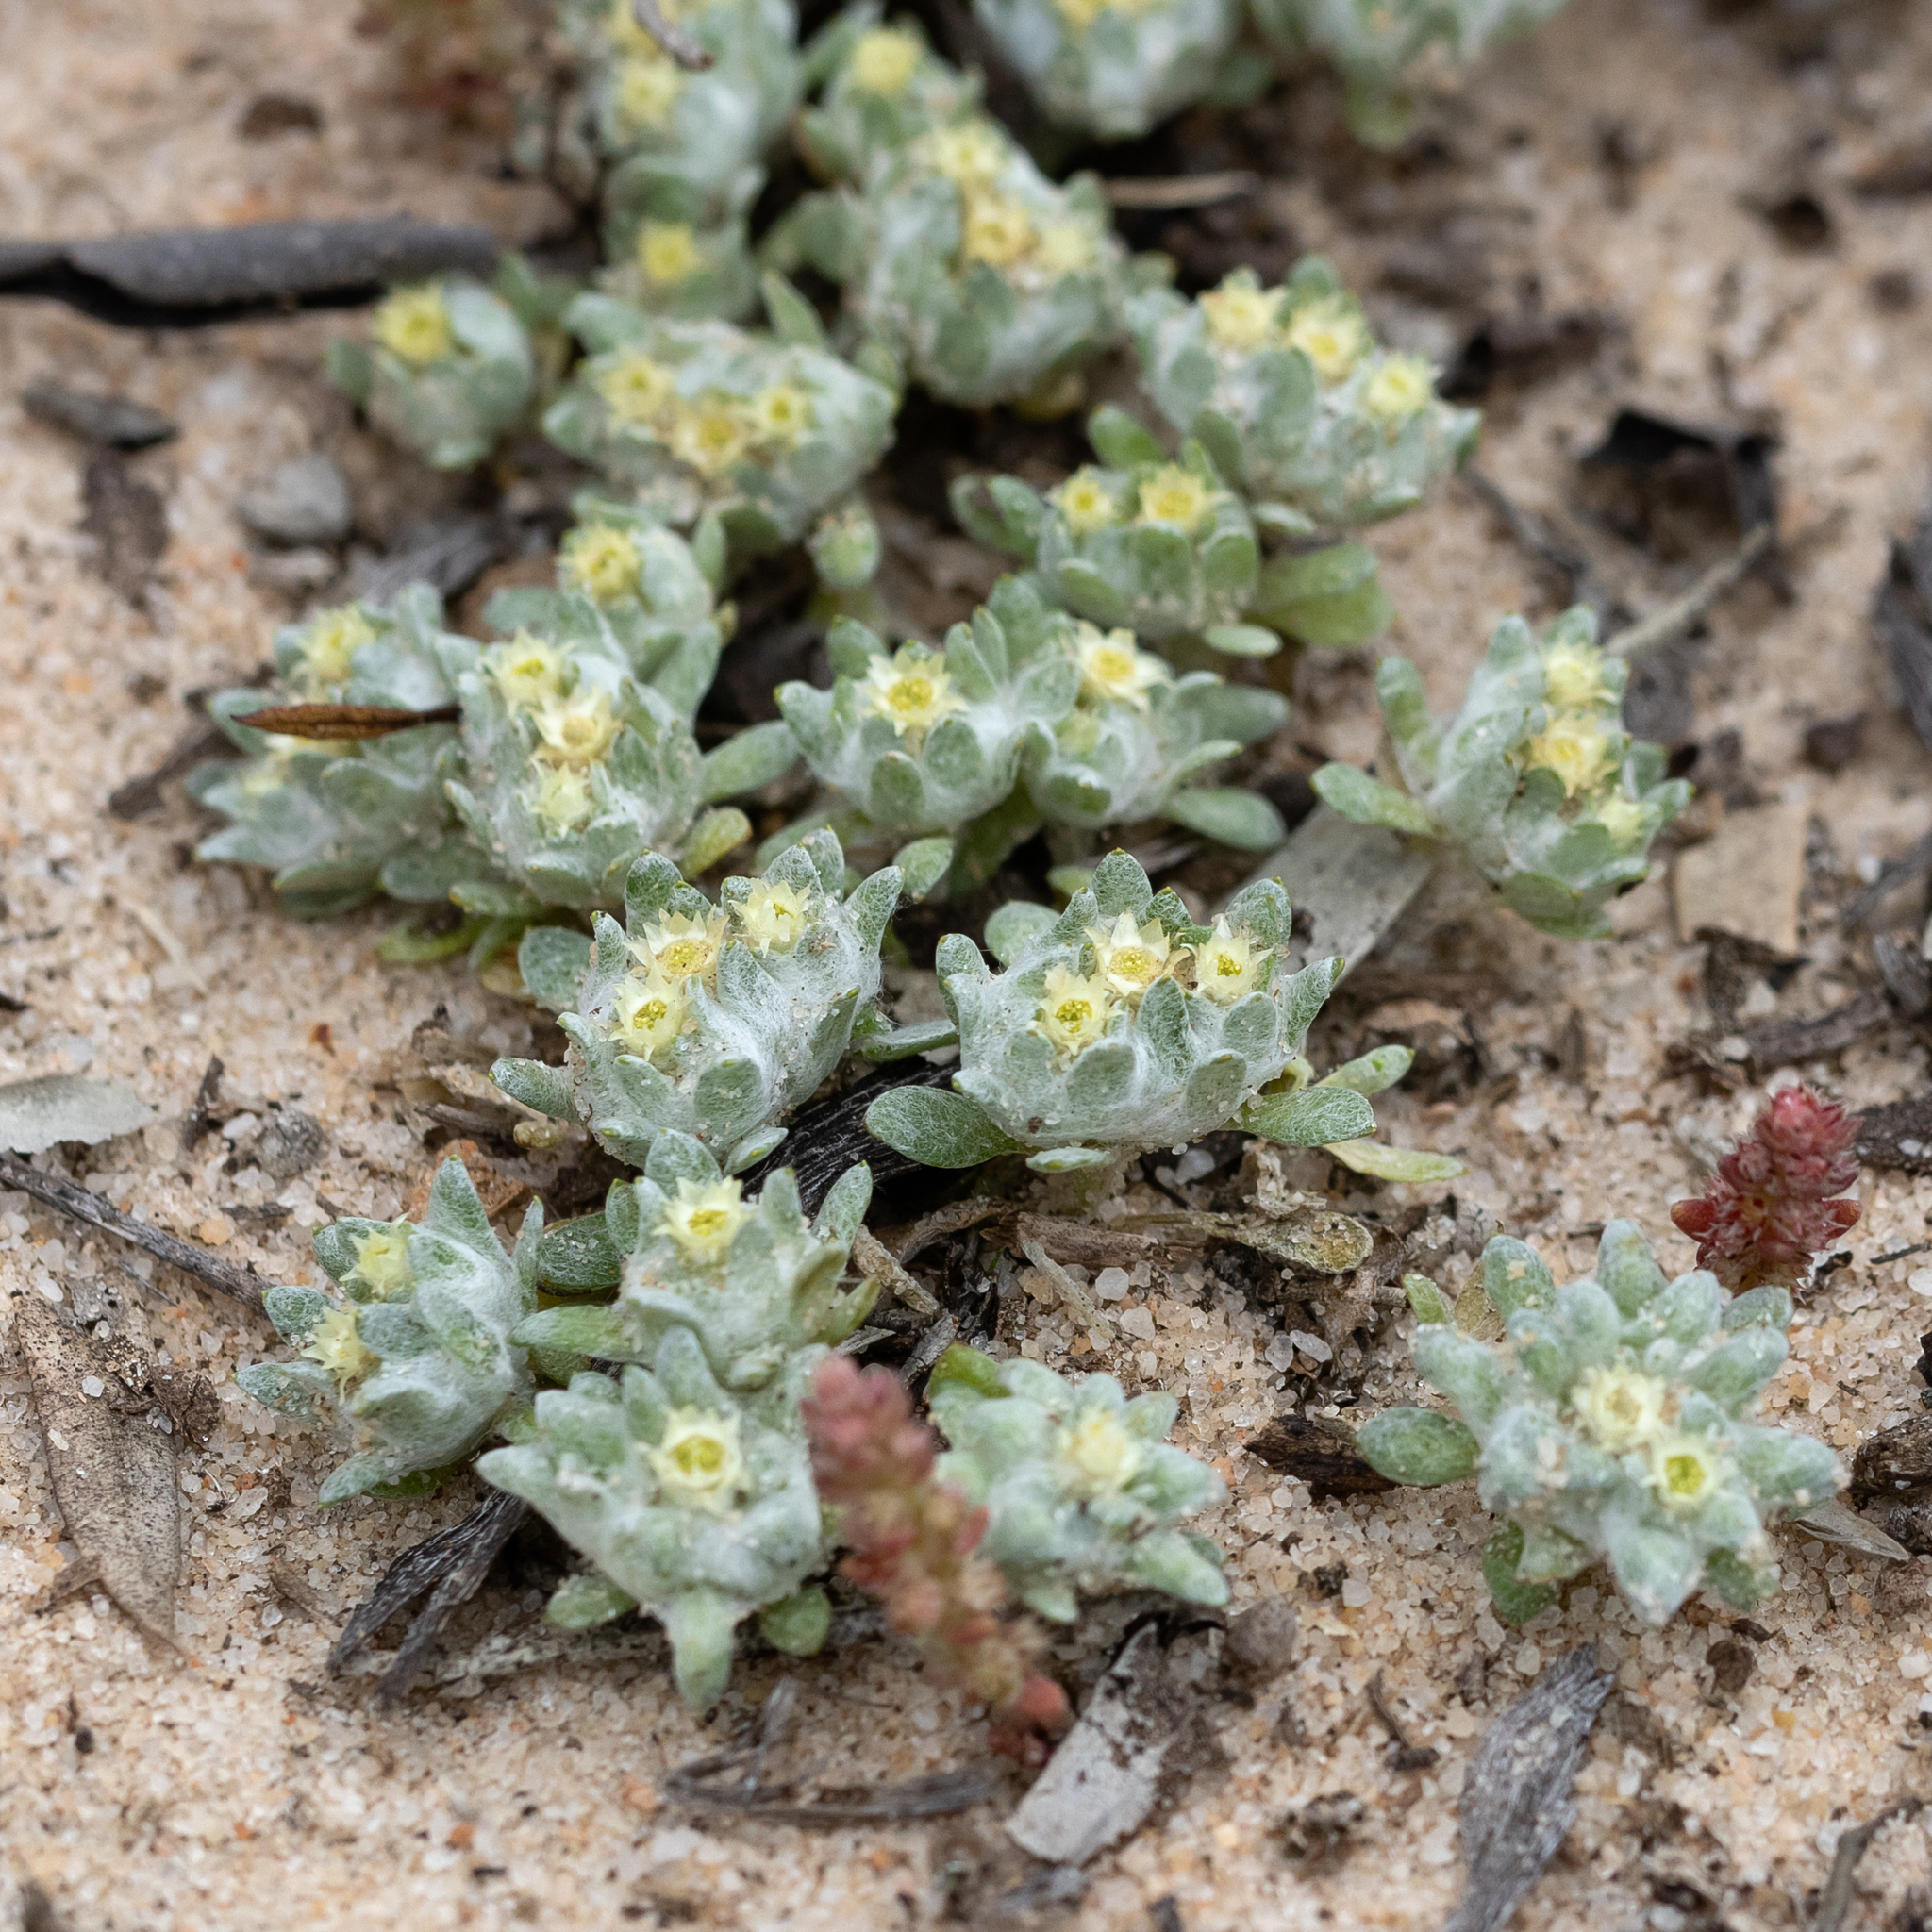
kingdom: Plantae
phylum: Tracheophyta
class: Magnoliopsida
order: Asterales
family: Asteraceae
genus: Actinobole
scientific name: Actinobole uliginosum
